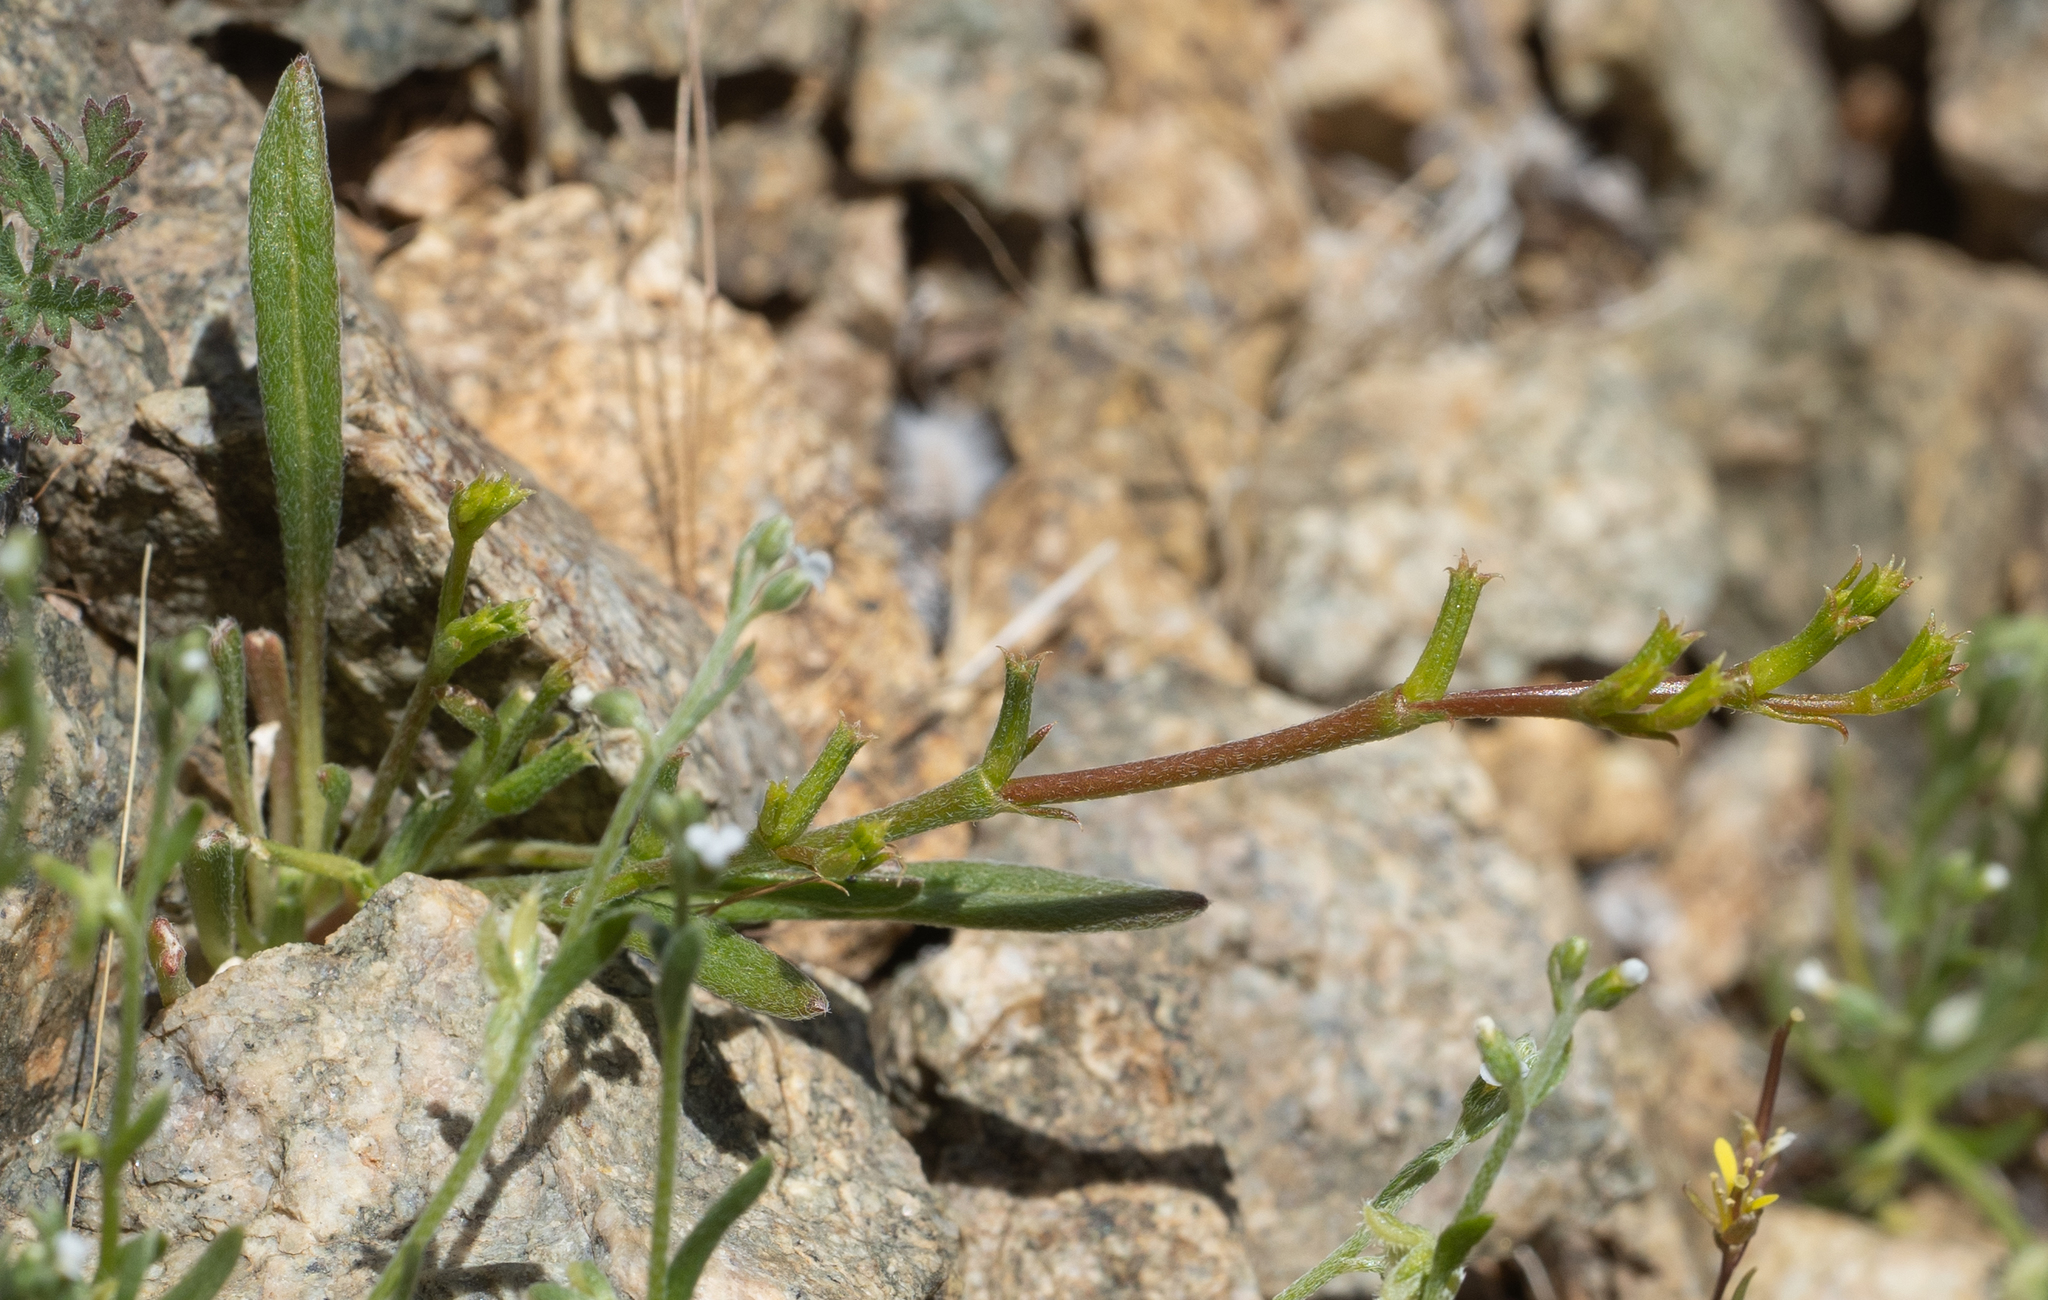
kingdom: Plantae
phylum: Tracheophyta
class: Magnoliopsida
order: Caryophyllales
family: Polygonaceae
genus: Chorizanthe
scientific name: Chorizanthe brevicornu
